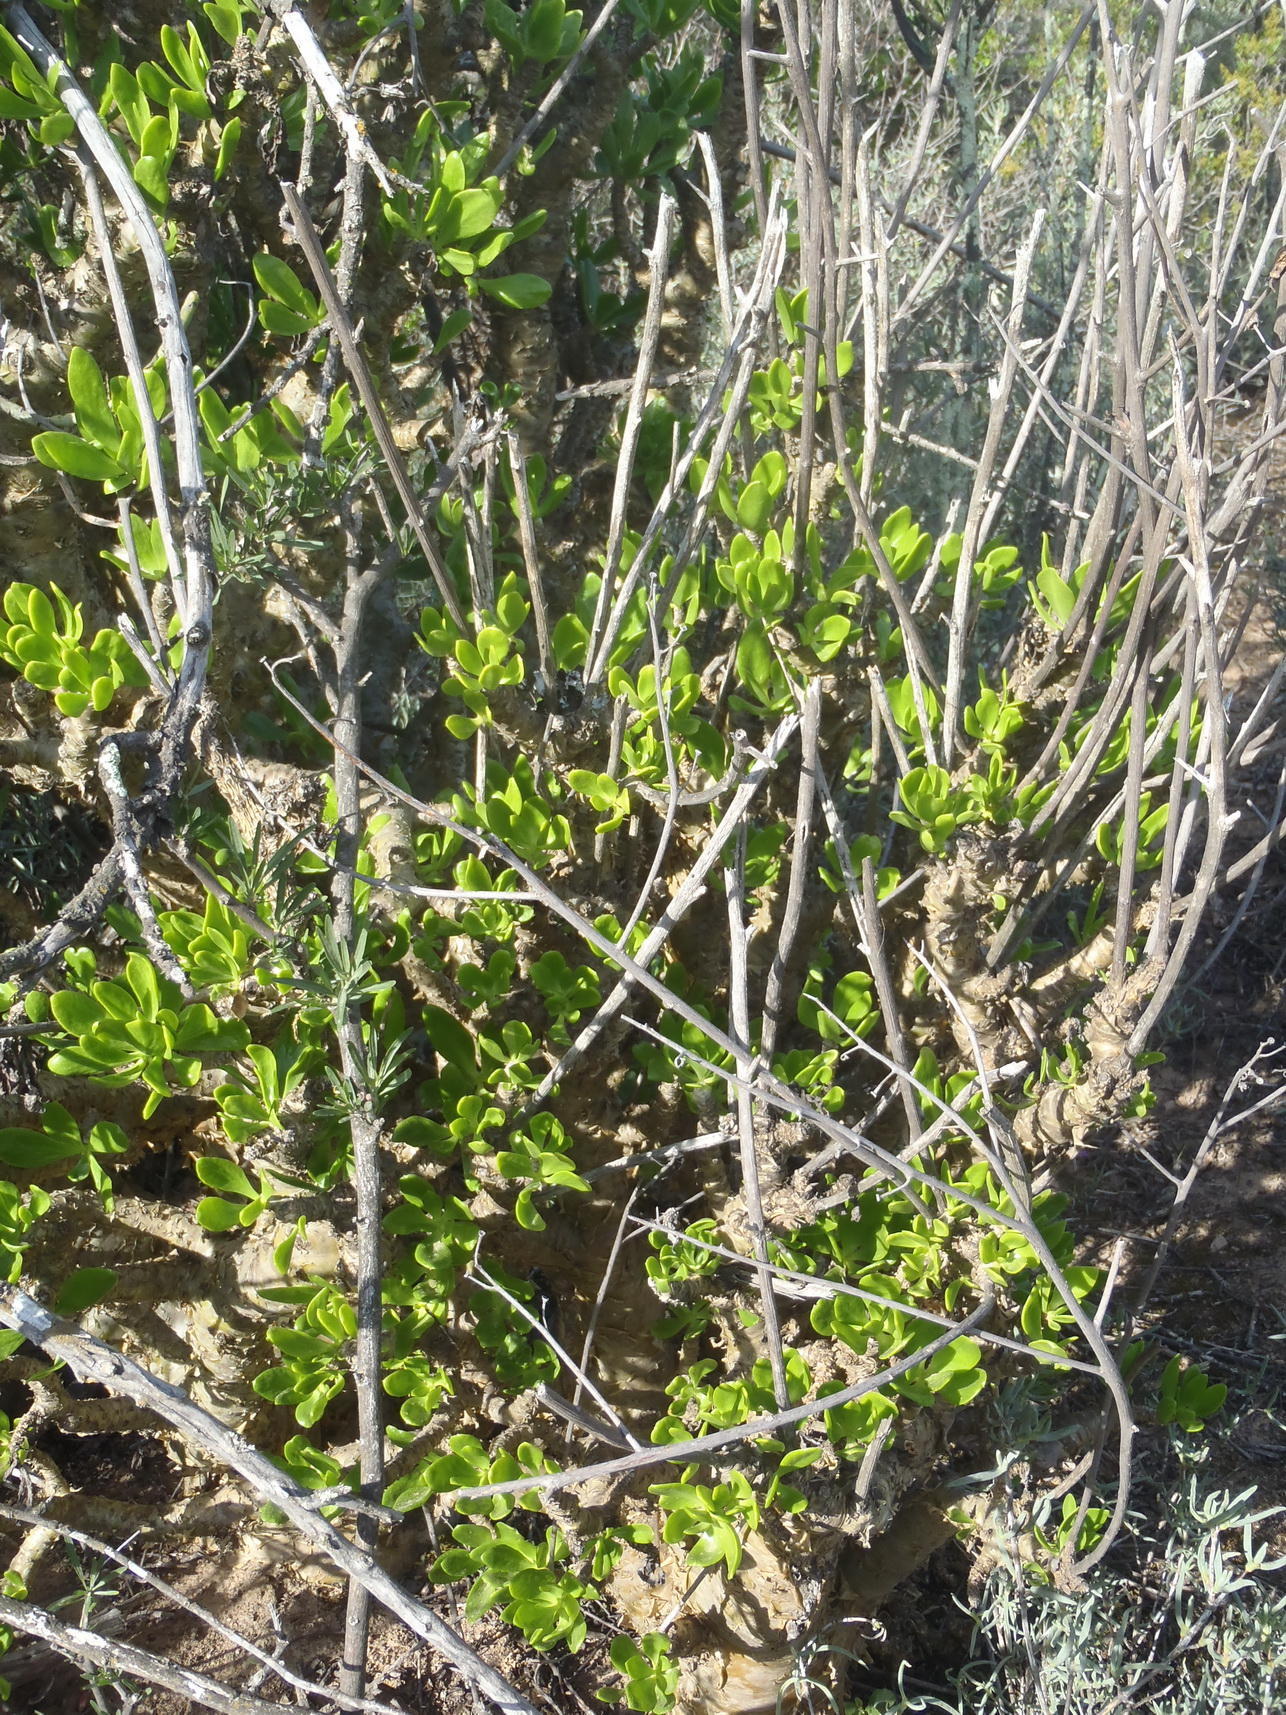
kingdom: Plantae
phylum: Tracheophyta
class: Magnoliopsida
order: Saxifragales
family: Crassulaceae
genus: Tylecodon
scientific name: Tylecodon paniculatus
